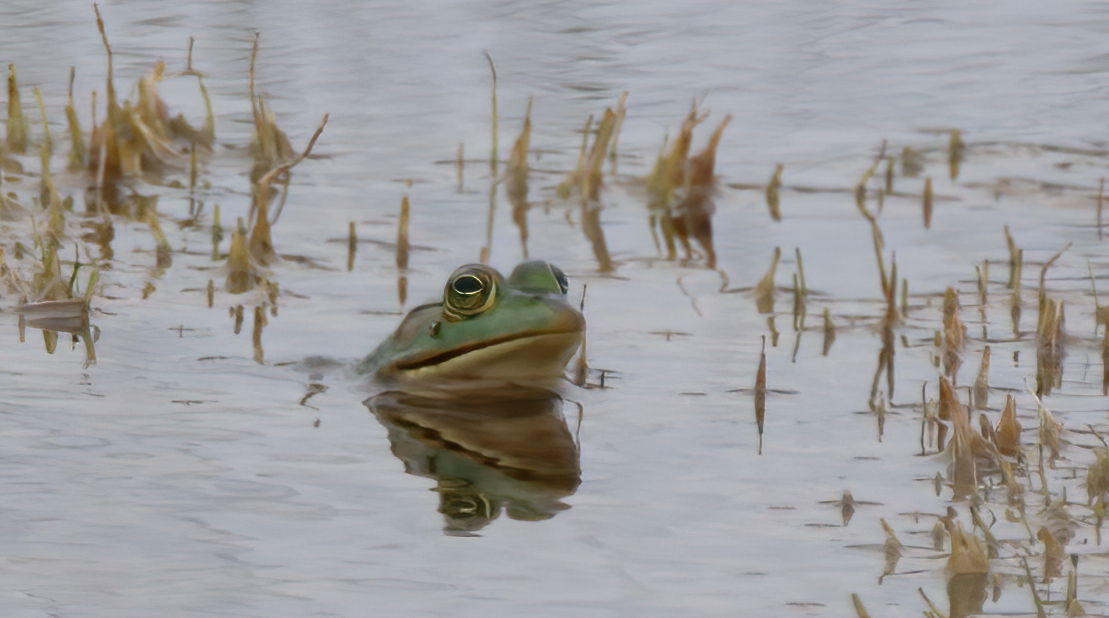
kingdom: Animalia
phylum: Chordata
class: Amphibia
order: Anura
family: Ranidae
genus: Lithobates
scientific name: Lithobates catesbeianus
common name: American bullfrog
